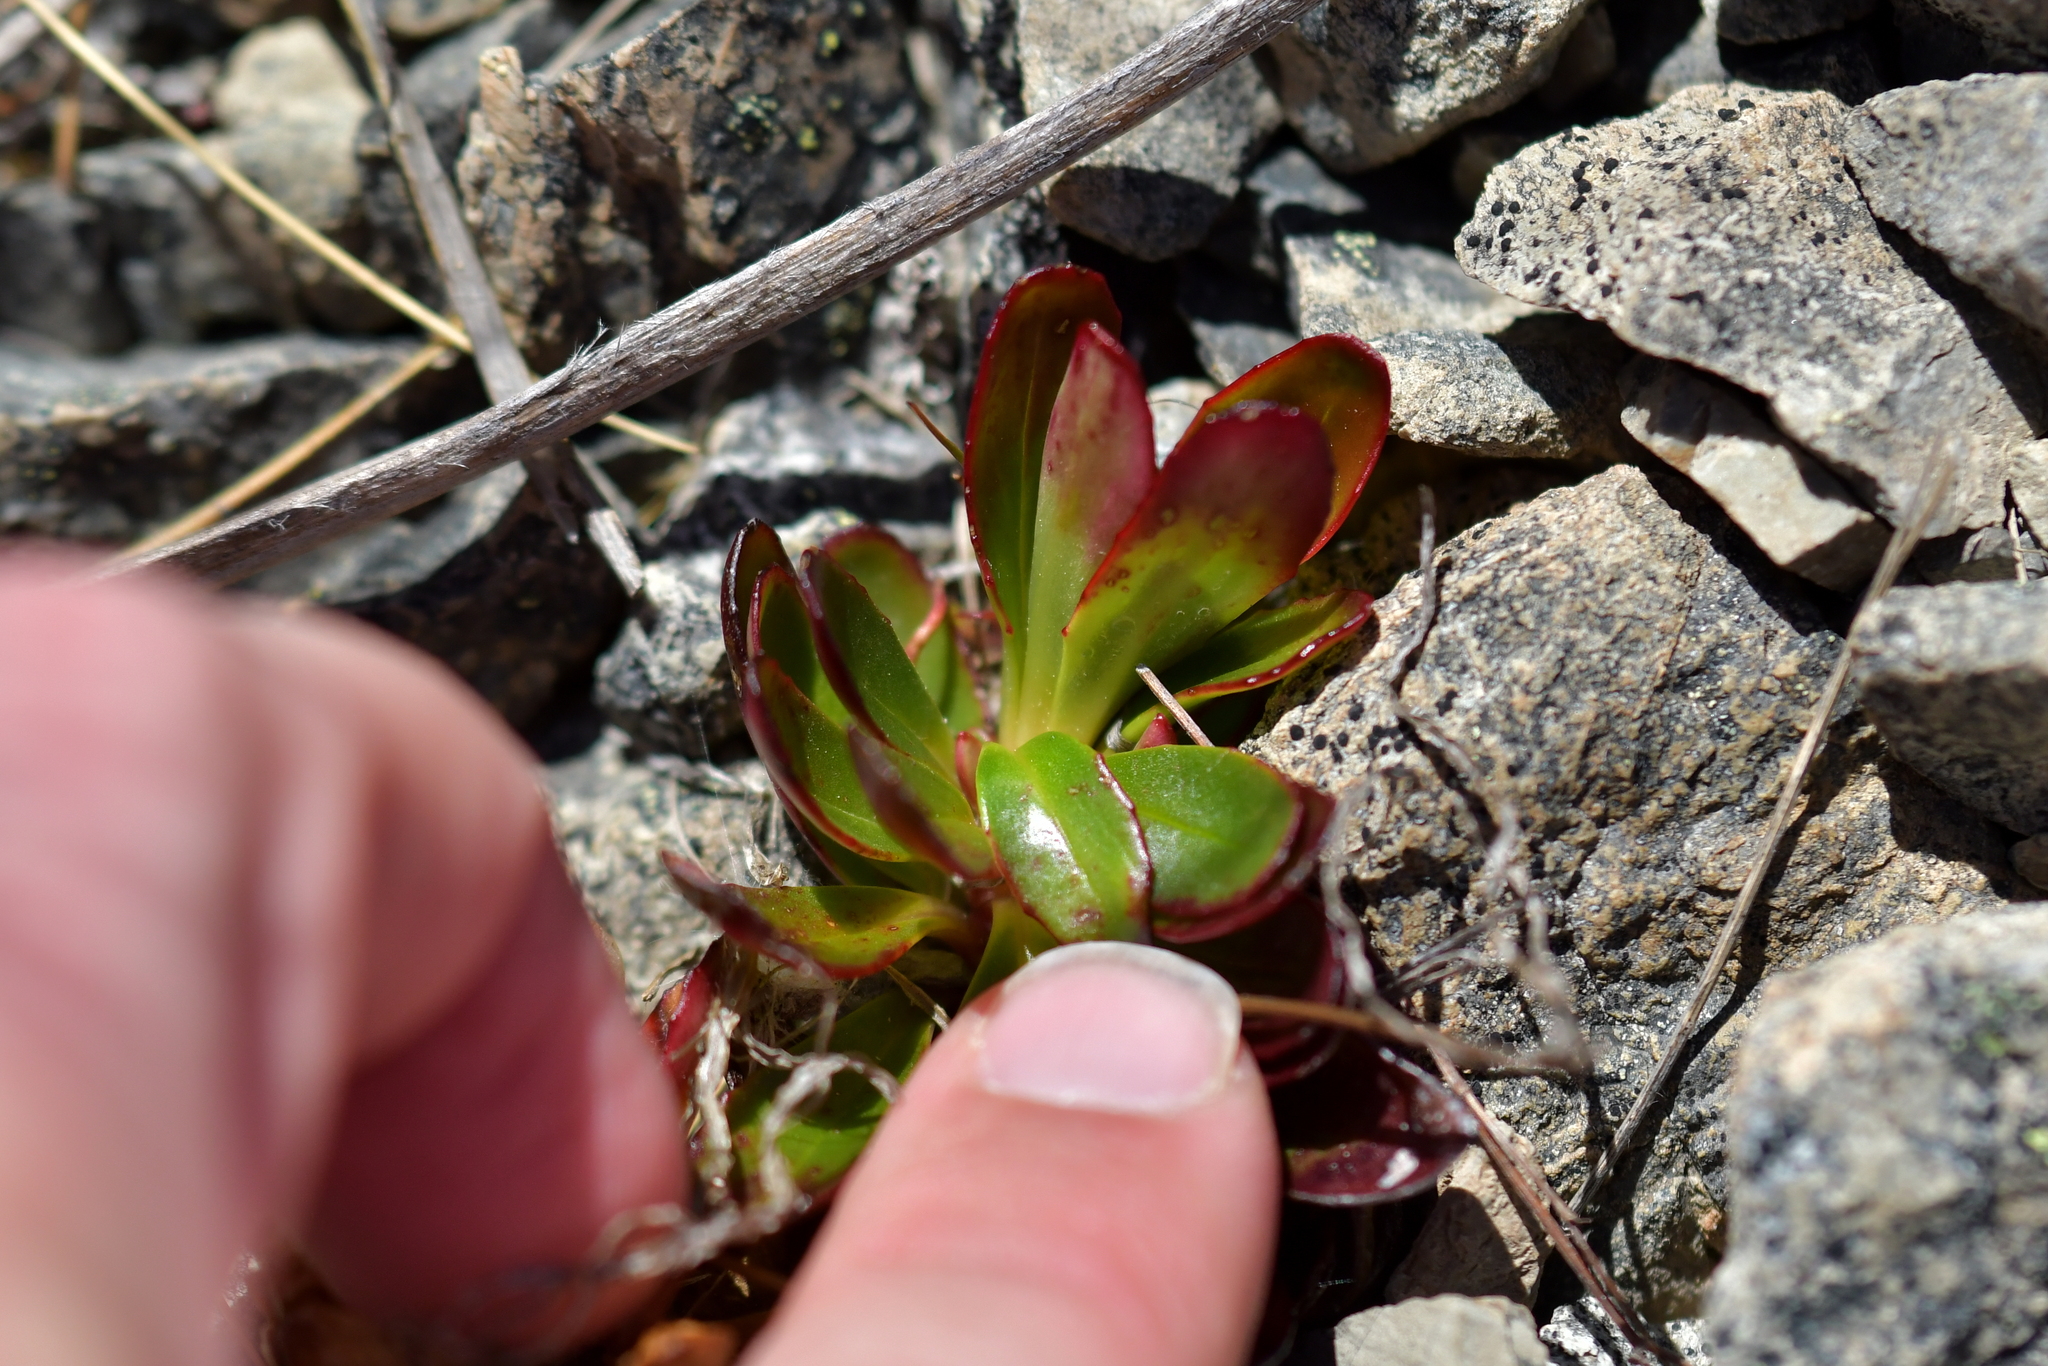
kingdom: Plantae
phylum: Tracheophyta
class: Magnoliopsida
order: Myrtales
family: Onagraceae
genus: Epilobium
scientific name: Epilobium crassum
